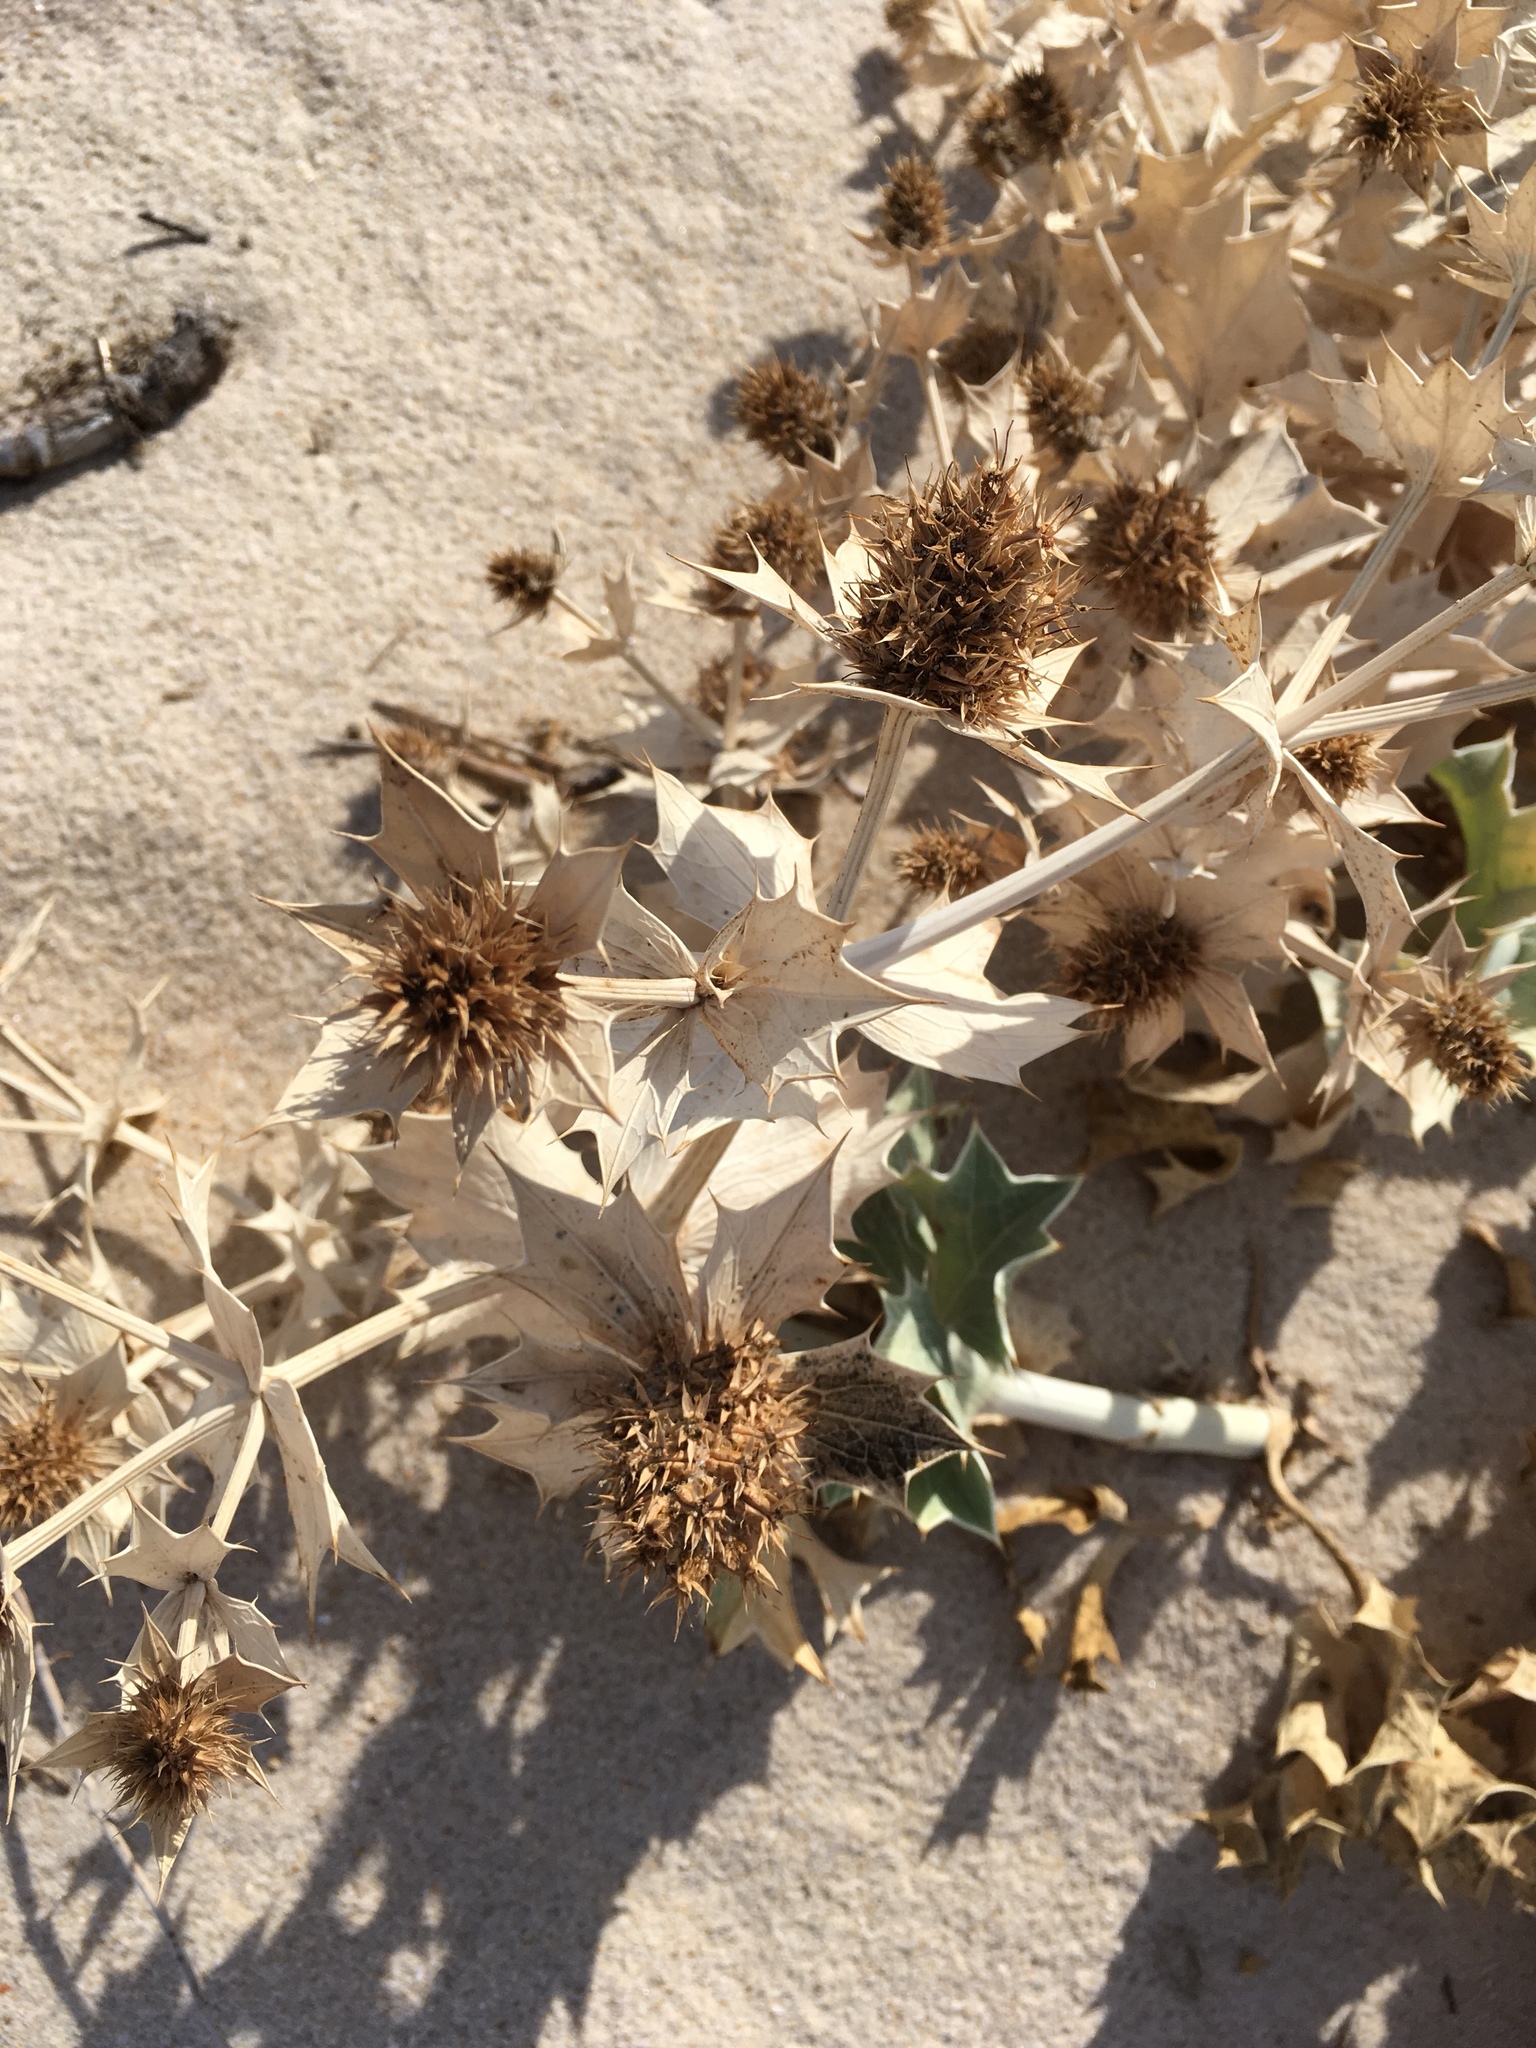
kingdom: Plantae
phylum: Tracheophyta
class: Magnoliopsida
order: Apiales
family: Apiaceae
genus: Eryngium
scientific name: Eryngium maritimum
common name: Sea-holly
